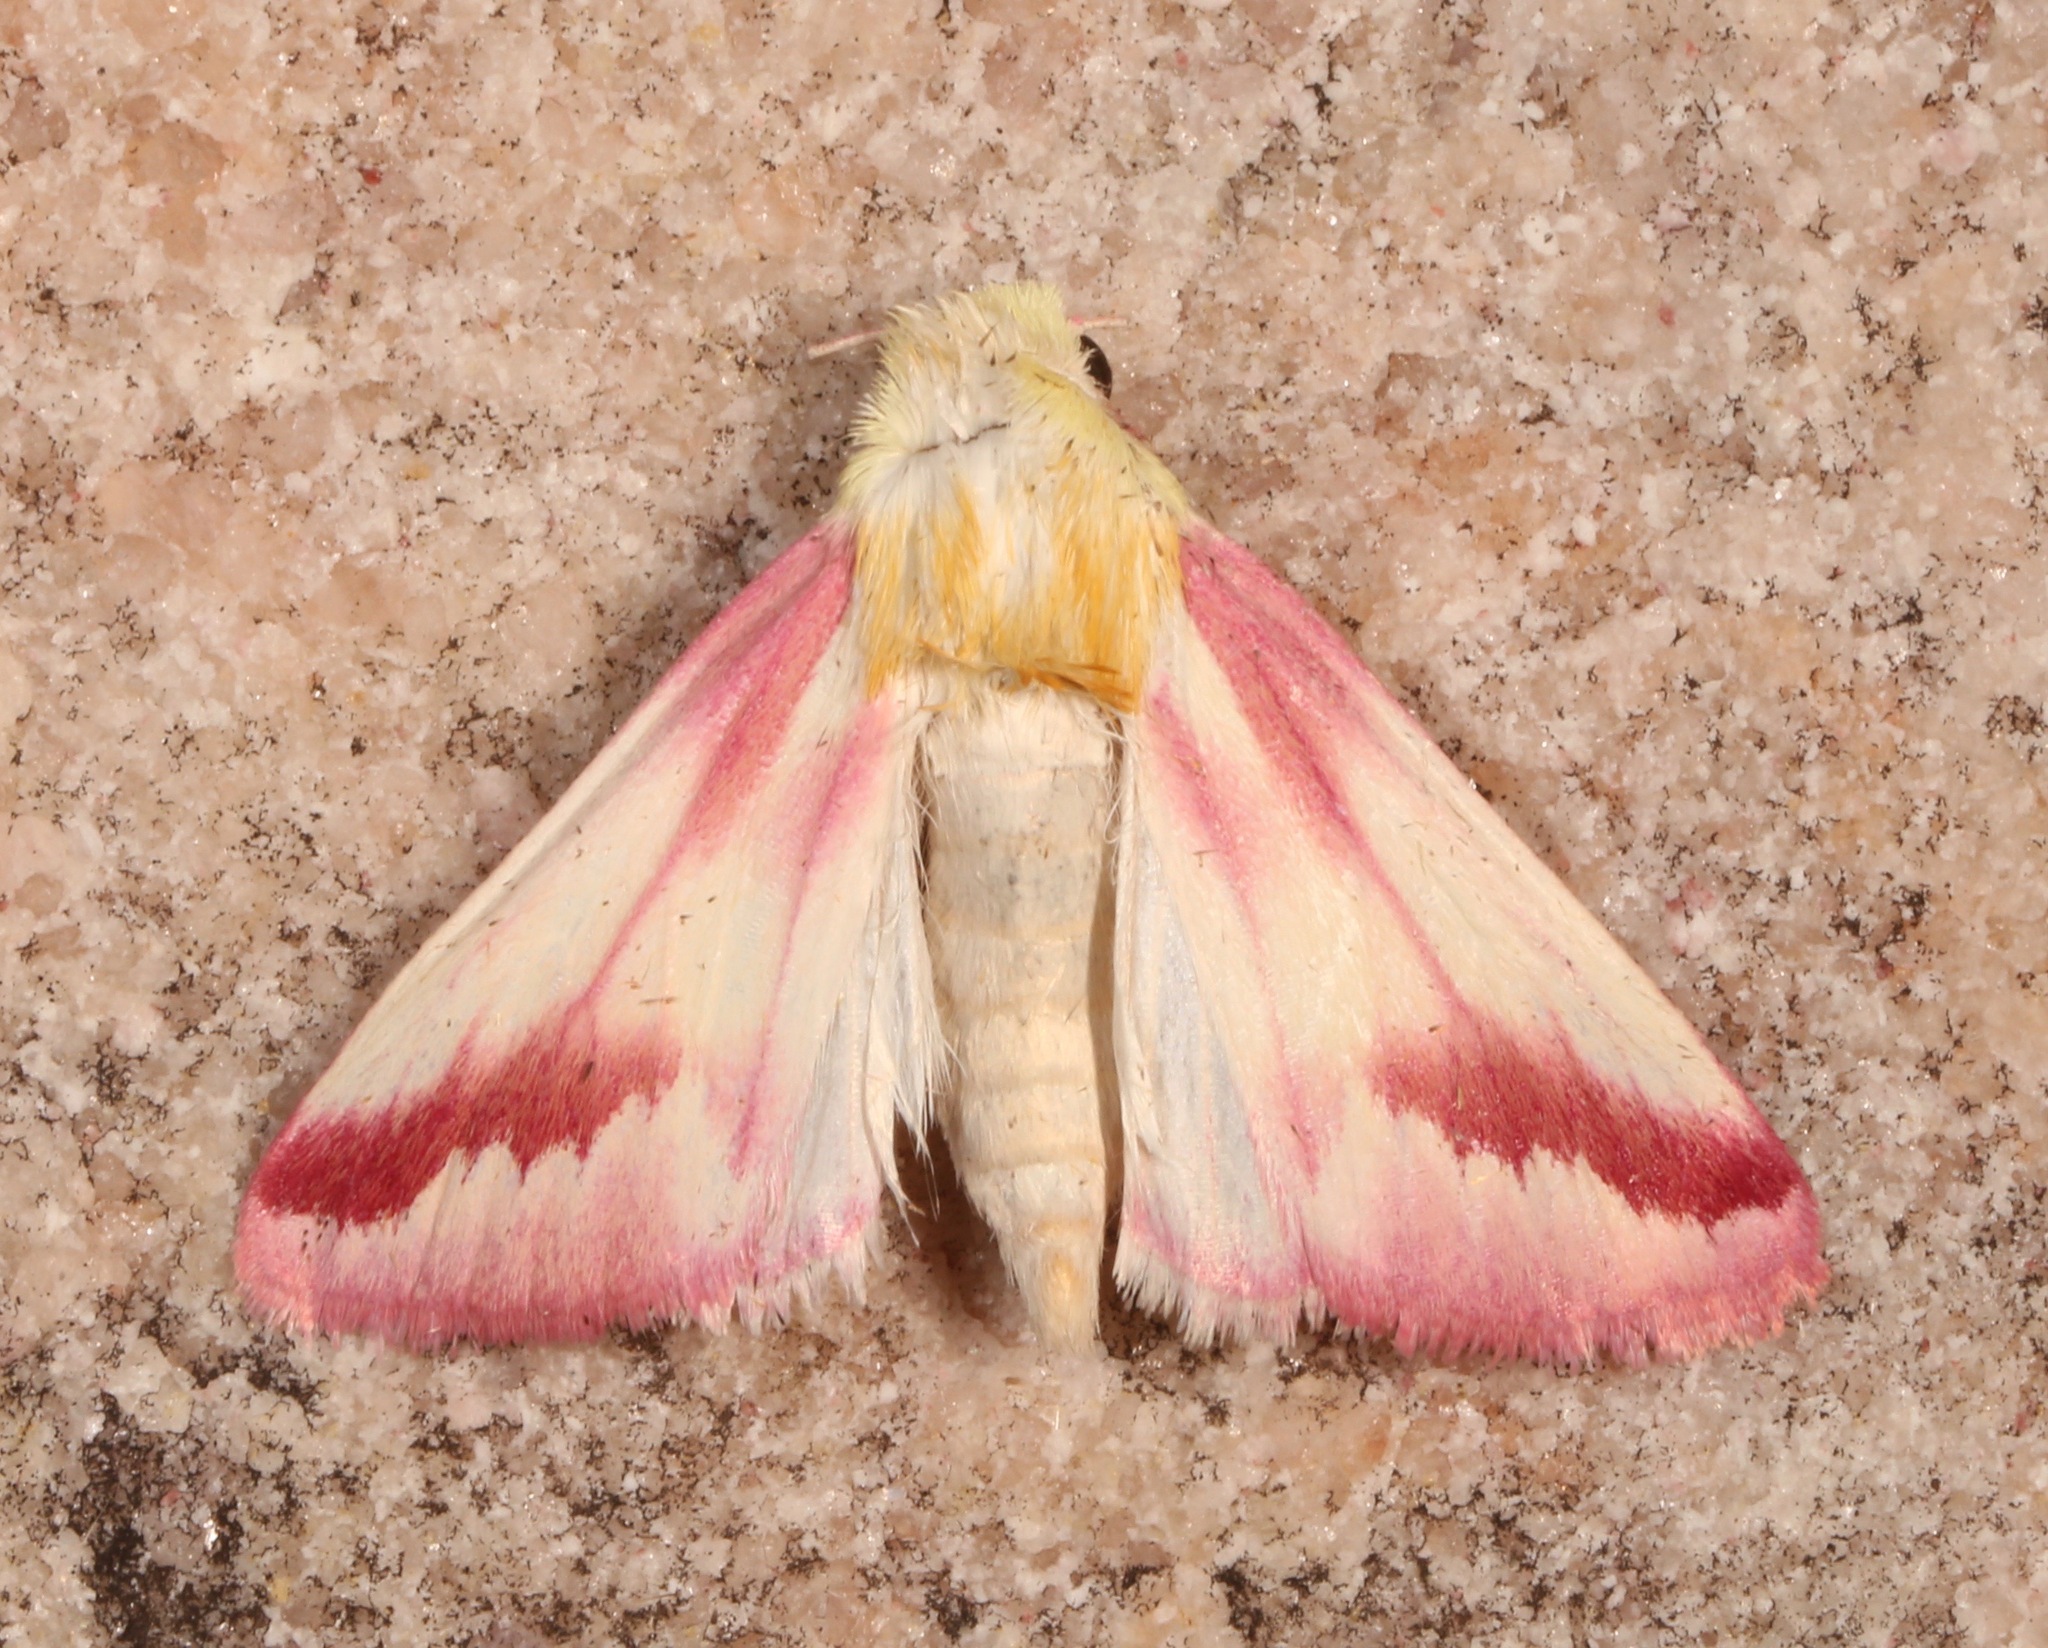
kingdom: Animalia
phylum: Arthropoda
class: Insecta
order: Lepidoptera
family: Noctuidae
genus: Schinia
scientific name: Schinia gaurae
